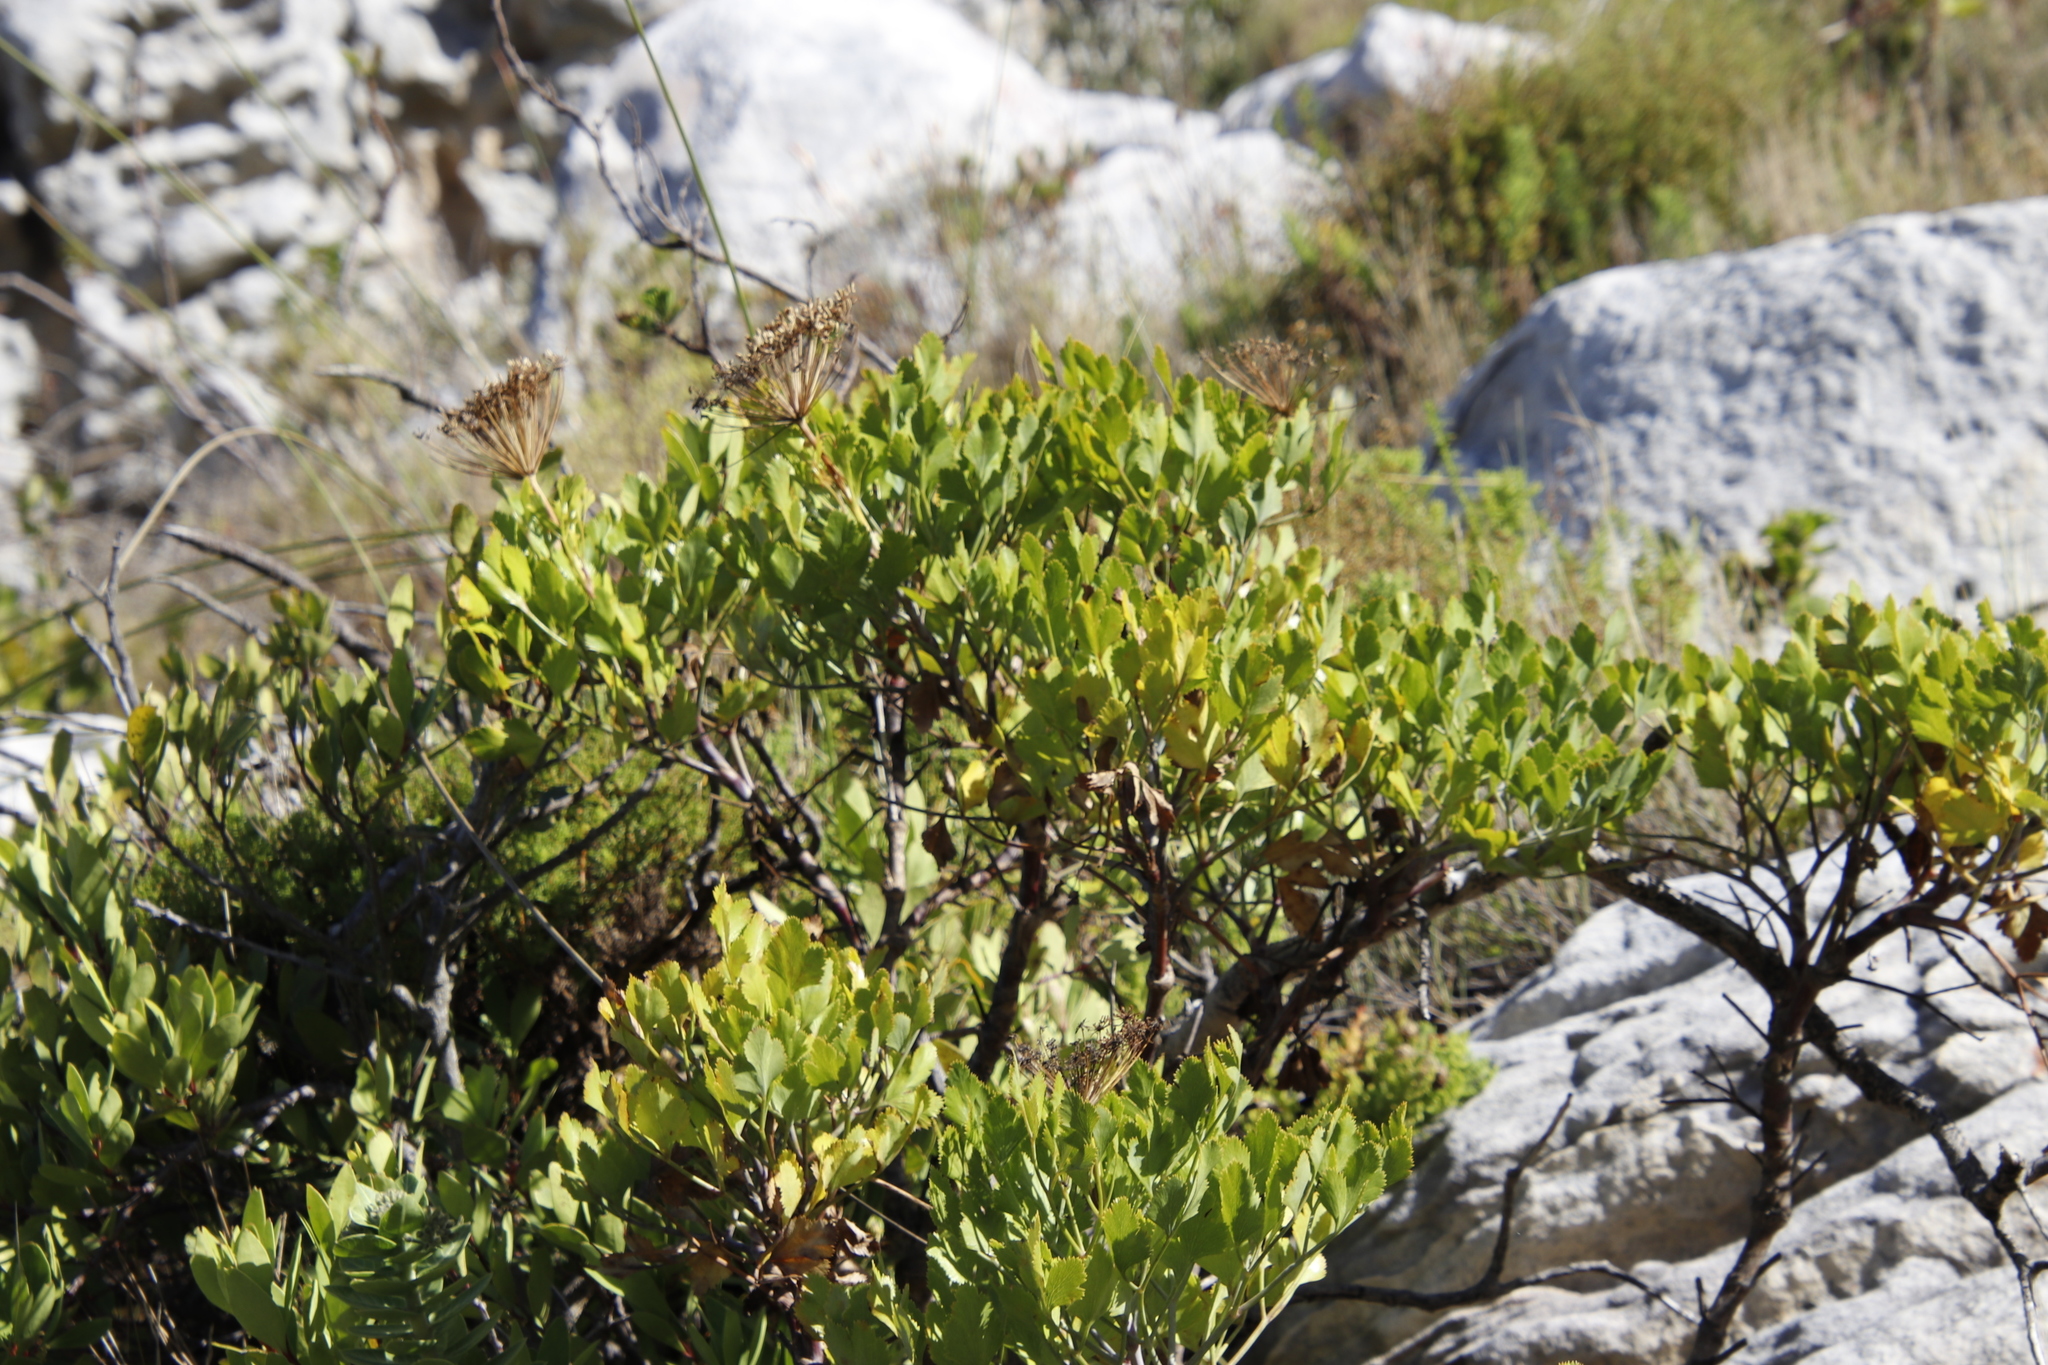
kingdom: Plantae
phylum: Tracheophyta
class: Magnoliopsida
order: Apiales
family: Apiaceae
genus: Notobubon
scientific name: Notobubon galbanum
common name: Blisterbush
